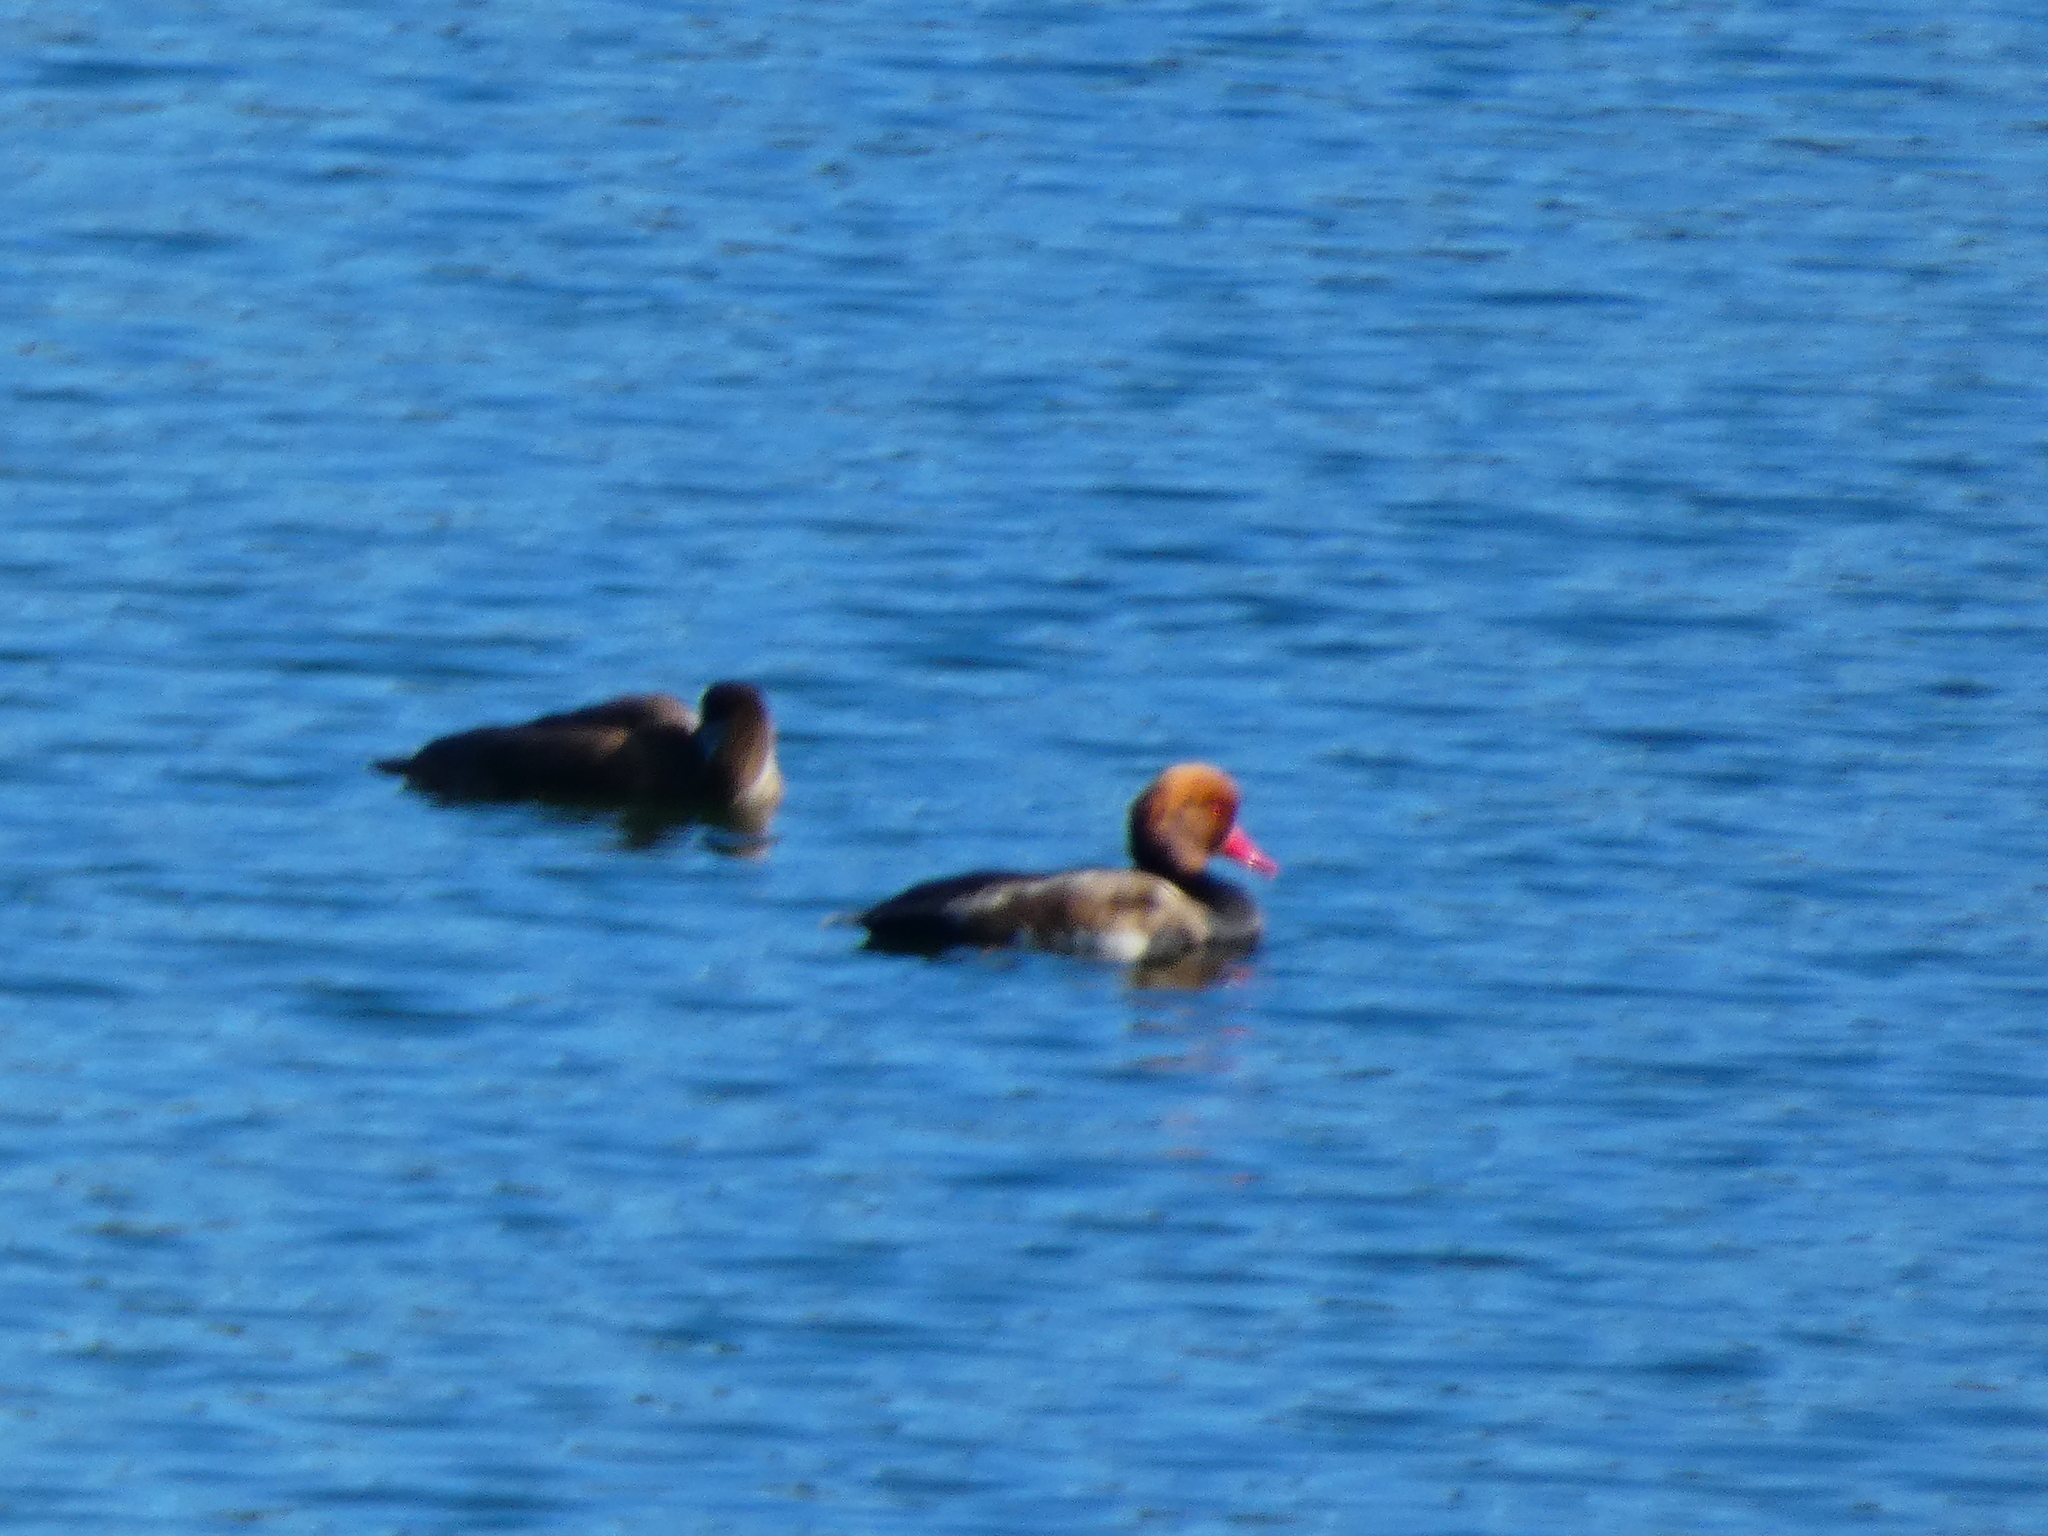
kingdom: Animalia
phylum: Chordata
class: Aves
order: Anseriformes
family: Anatidae
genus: Netta
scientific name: Netta rufina
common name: Red-crested pochard
